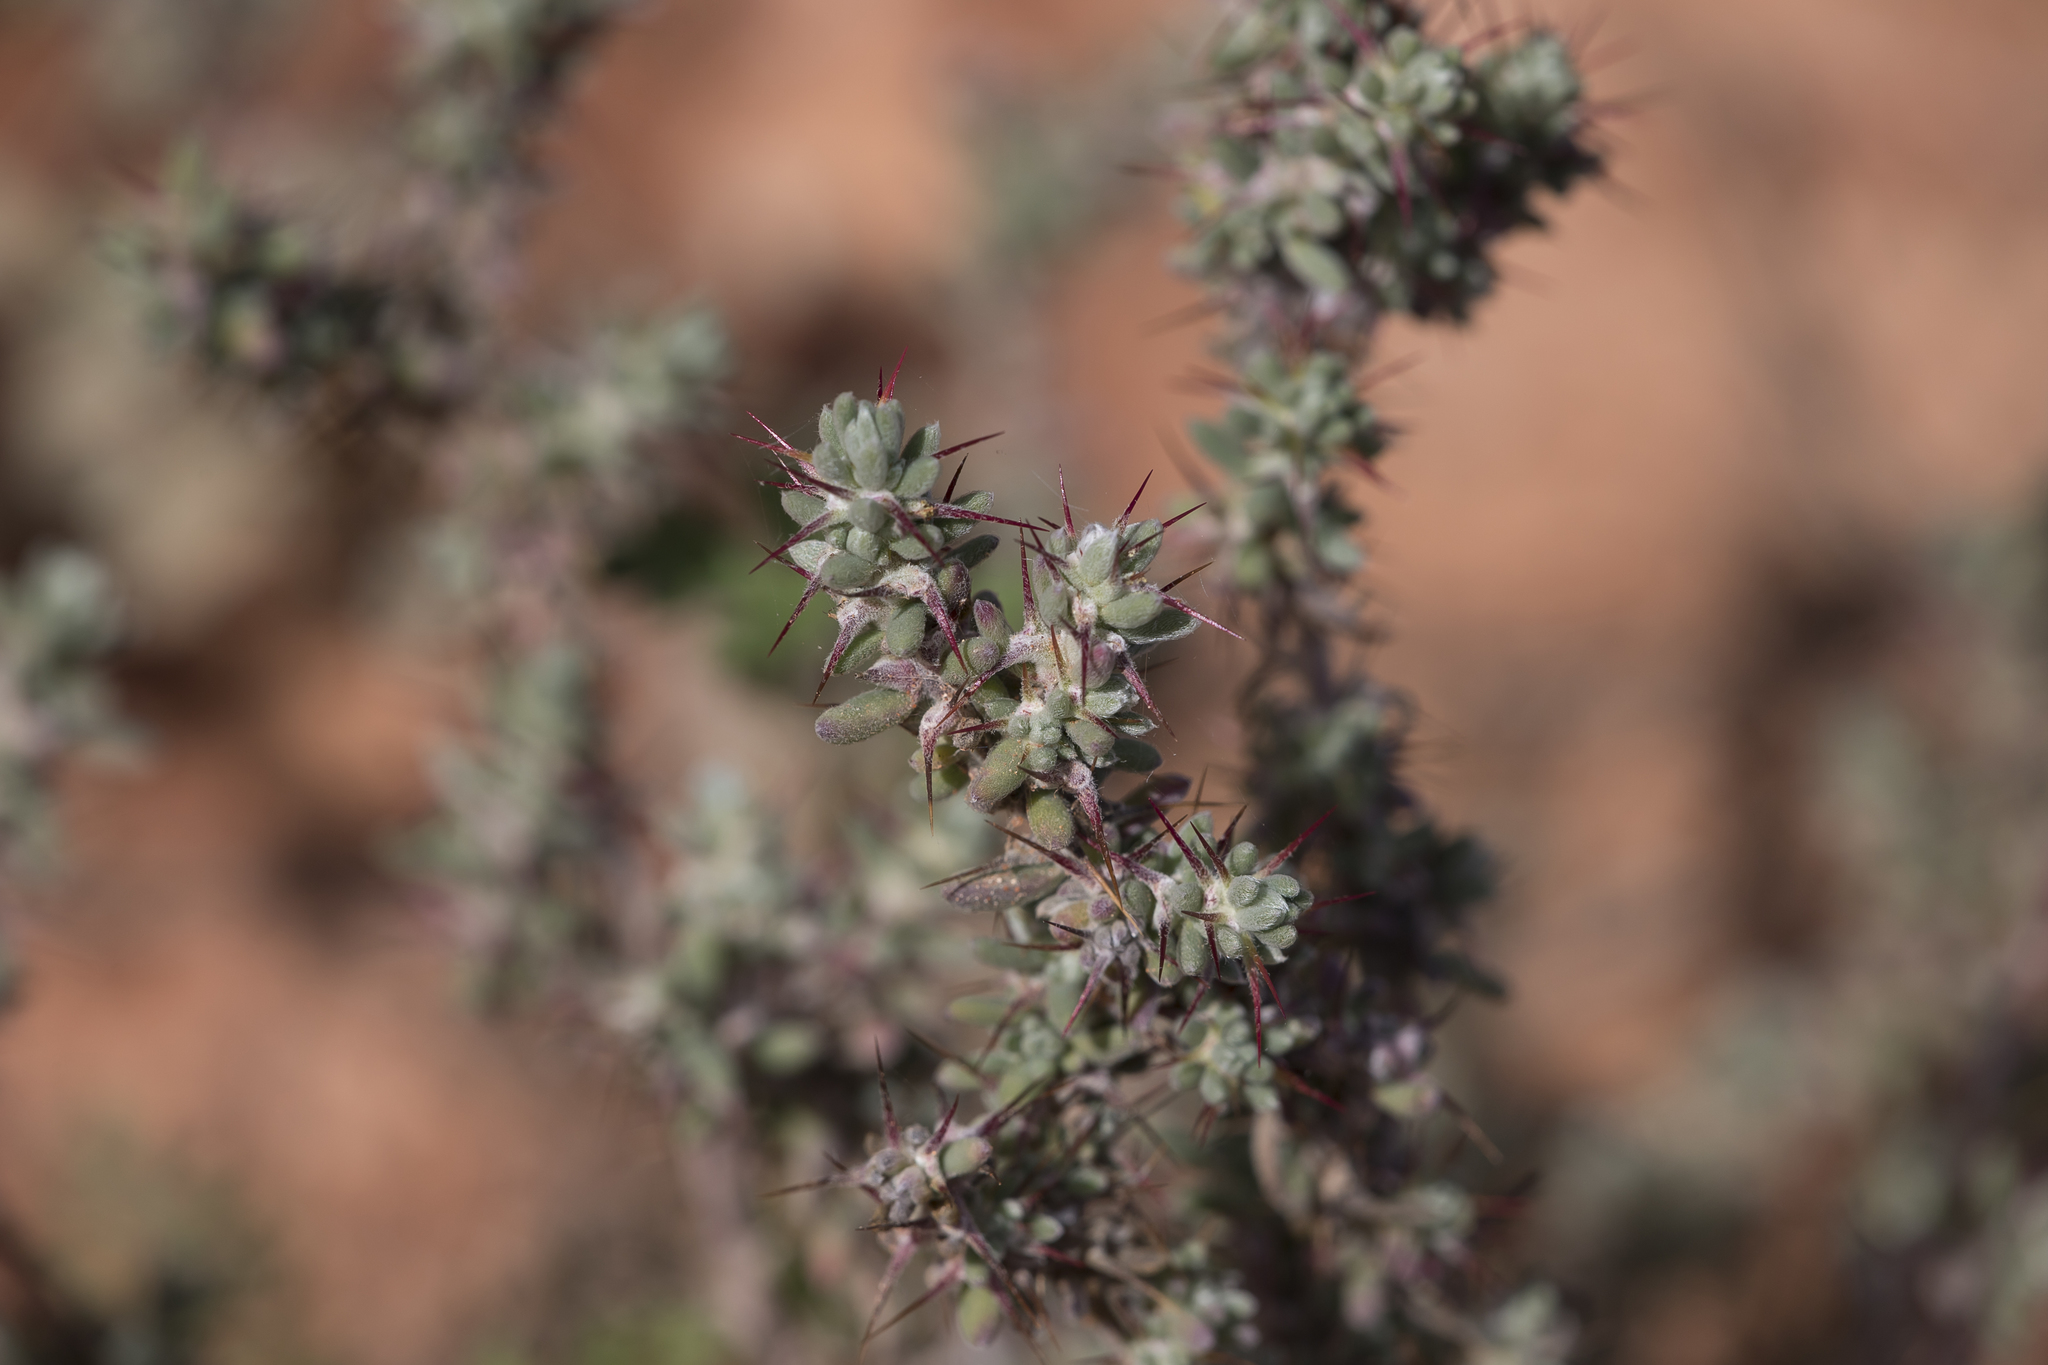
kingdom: Plantae
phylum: Tracheophyta
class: Magnoliopsida
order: Caryophyllales
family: Amaranthaceae
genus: Sclerolaena
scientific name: Sclerolaena obliquicuspis
